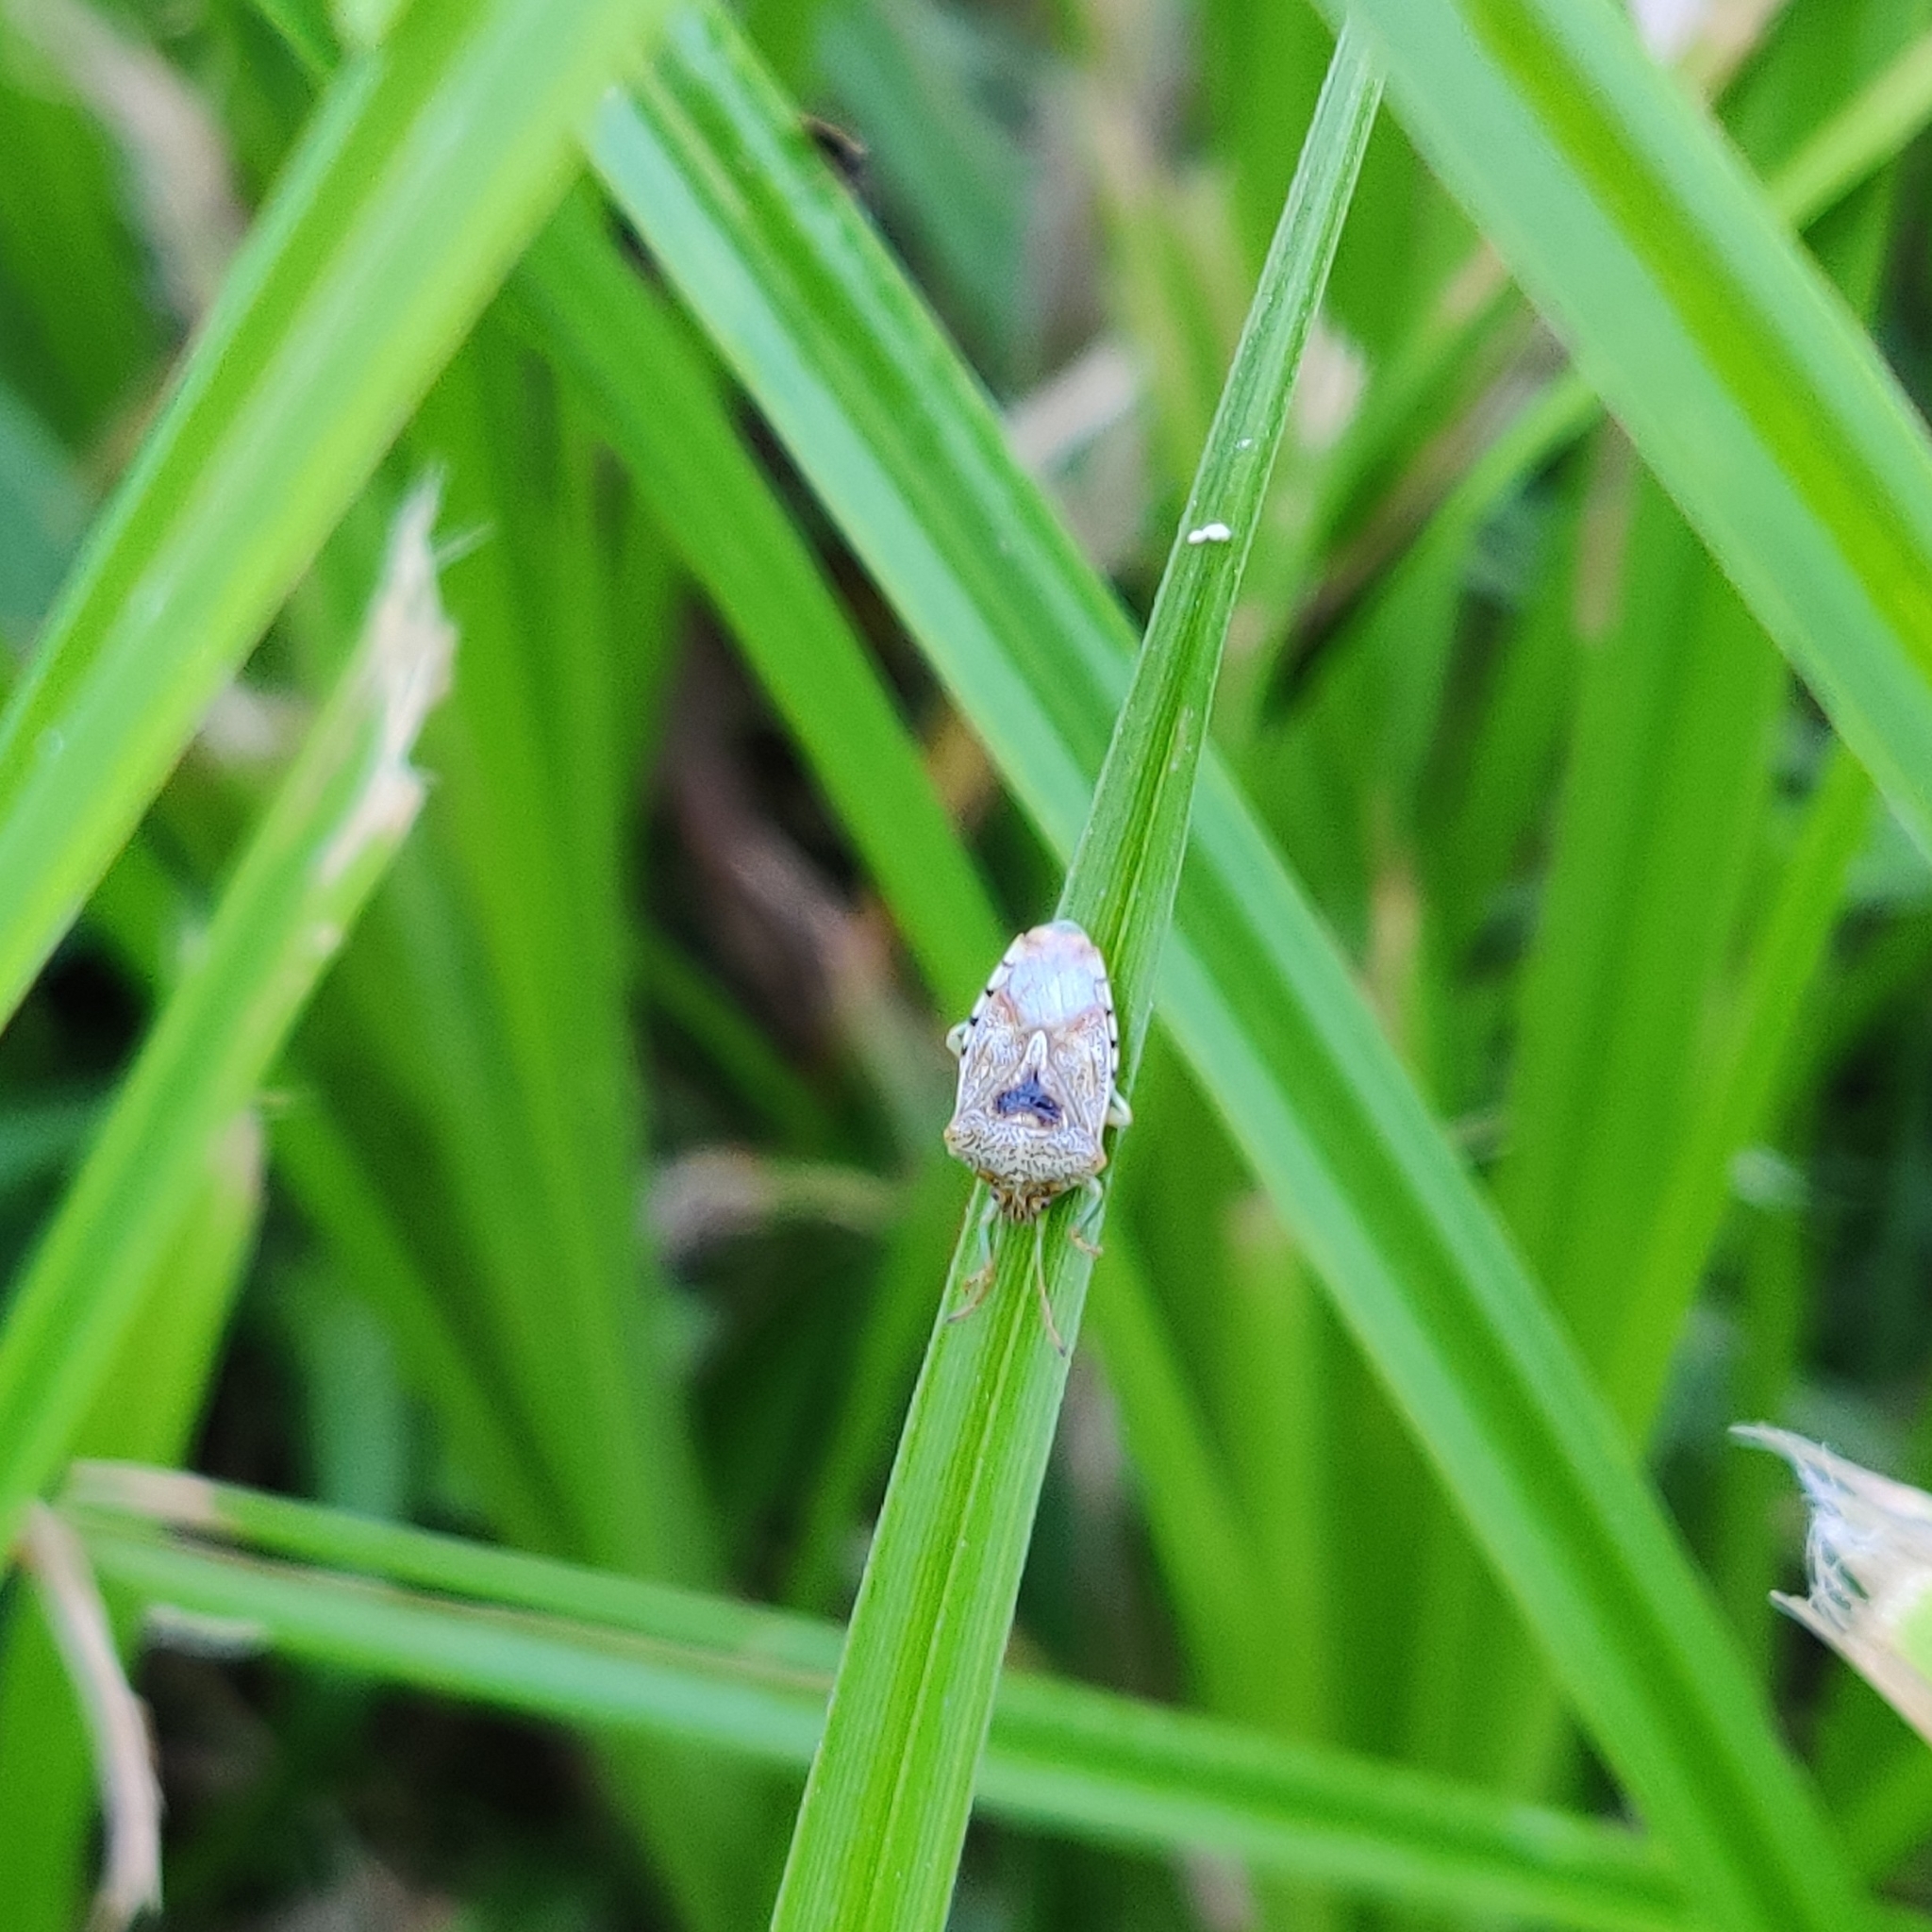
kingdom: Animalia
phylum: Arthropoda
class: Insecta
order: Hemiptera
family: Acanthosomatidae
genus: Elasmucha
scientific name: Elasmucha grisea
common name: Parent bug
